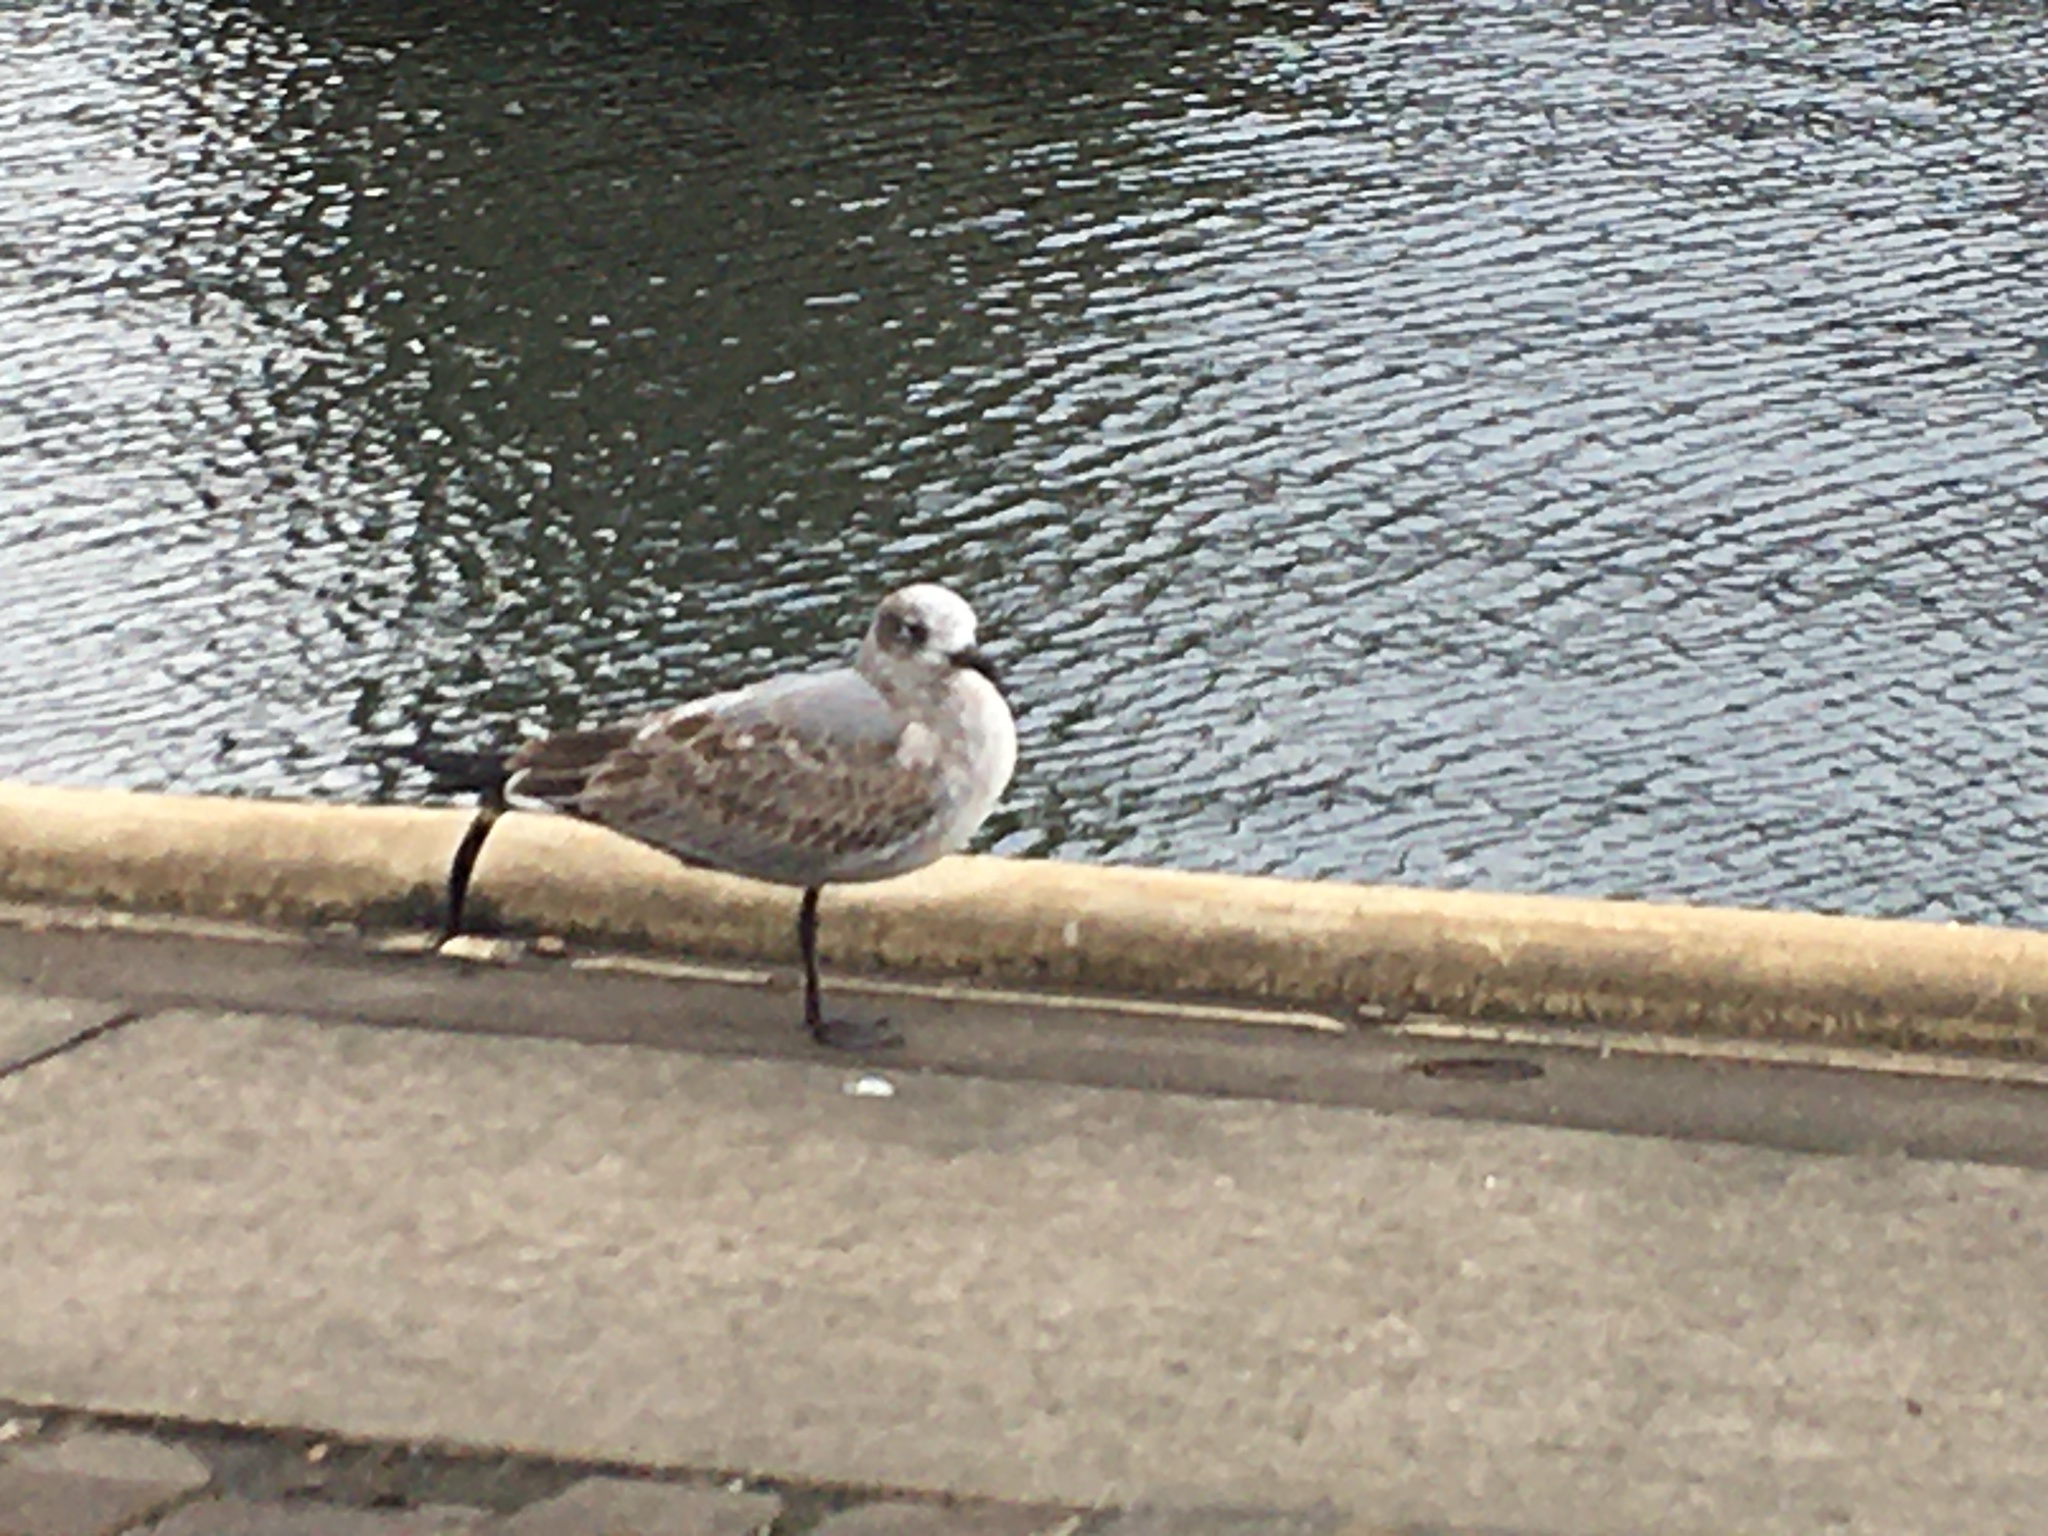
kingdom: Animalia
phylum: Chordata
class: Aves
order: Charadriiformes
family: Laridae
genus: Leucophaeus
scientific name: Leucophaeus atricilla
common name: Laughing gull
